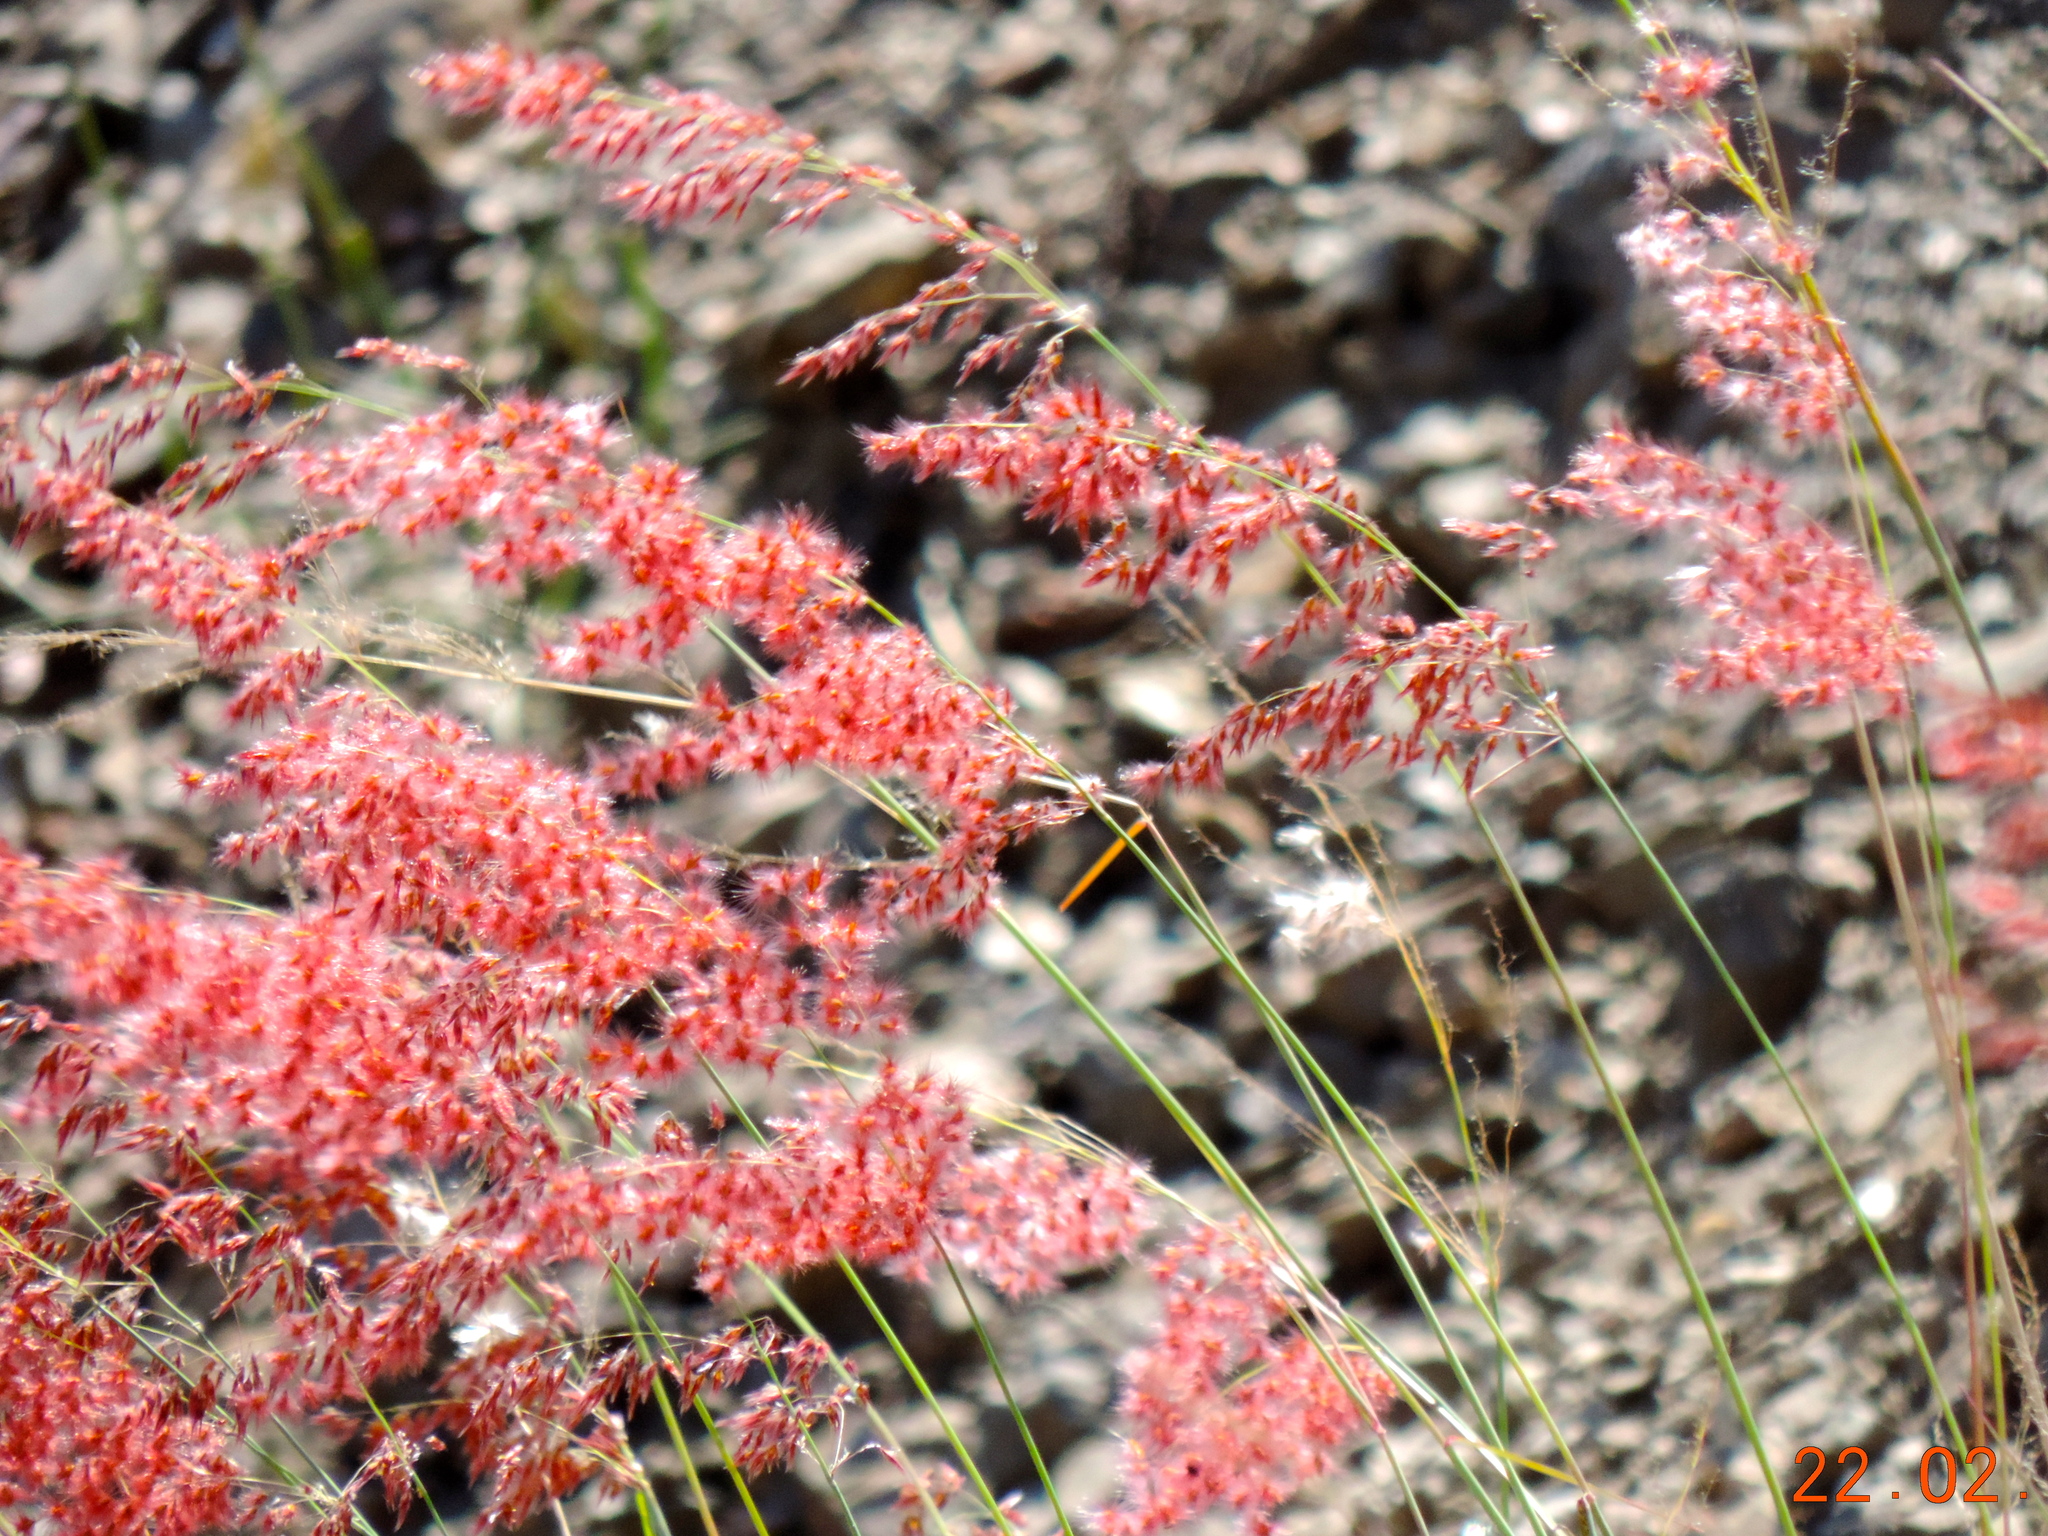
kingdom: Plantae
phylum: Tracheophyta
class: Liliopsida
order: Poales
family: Poaceae
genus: Melinis
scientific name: Melinis repens
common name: Rose natal grass
